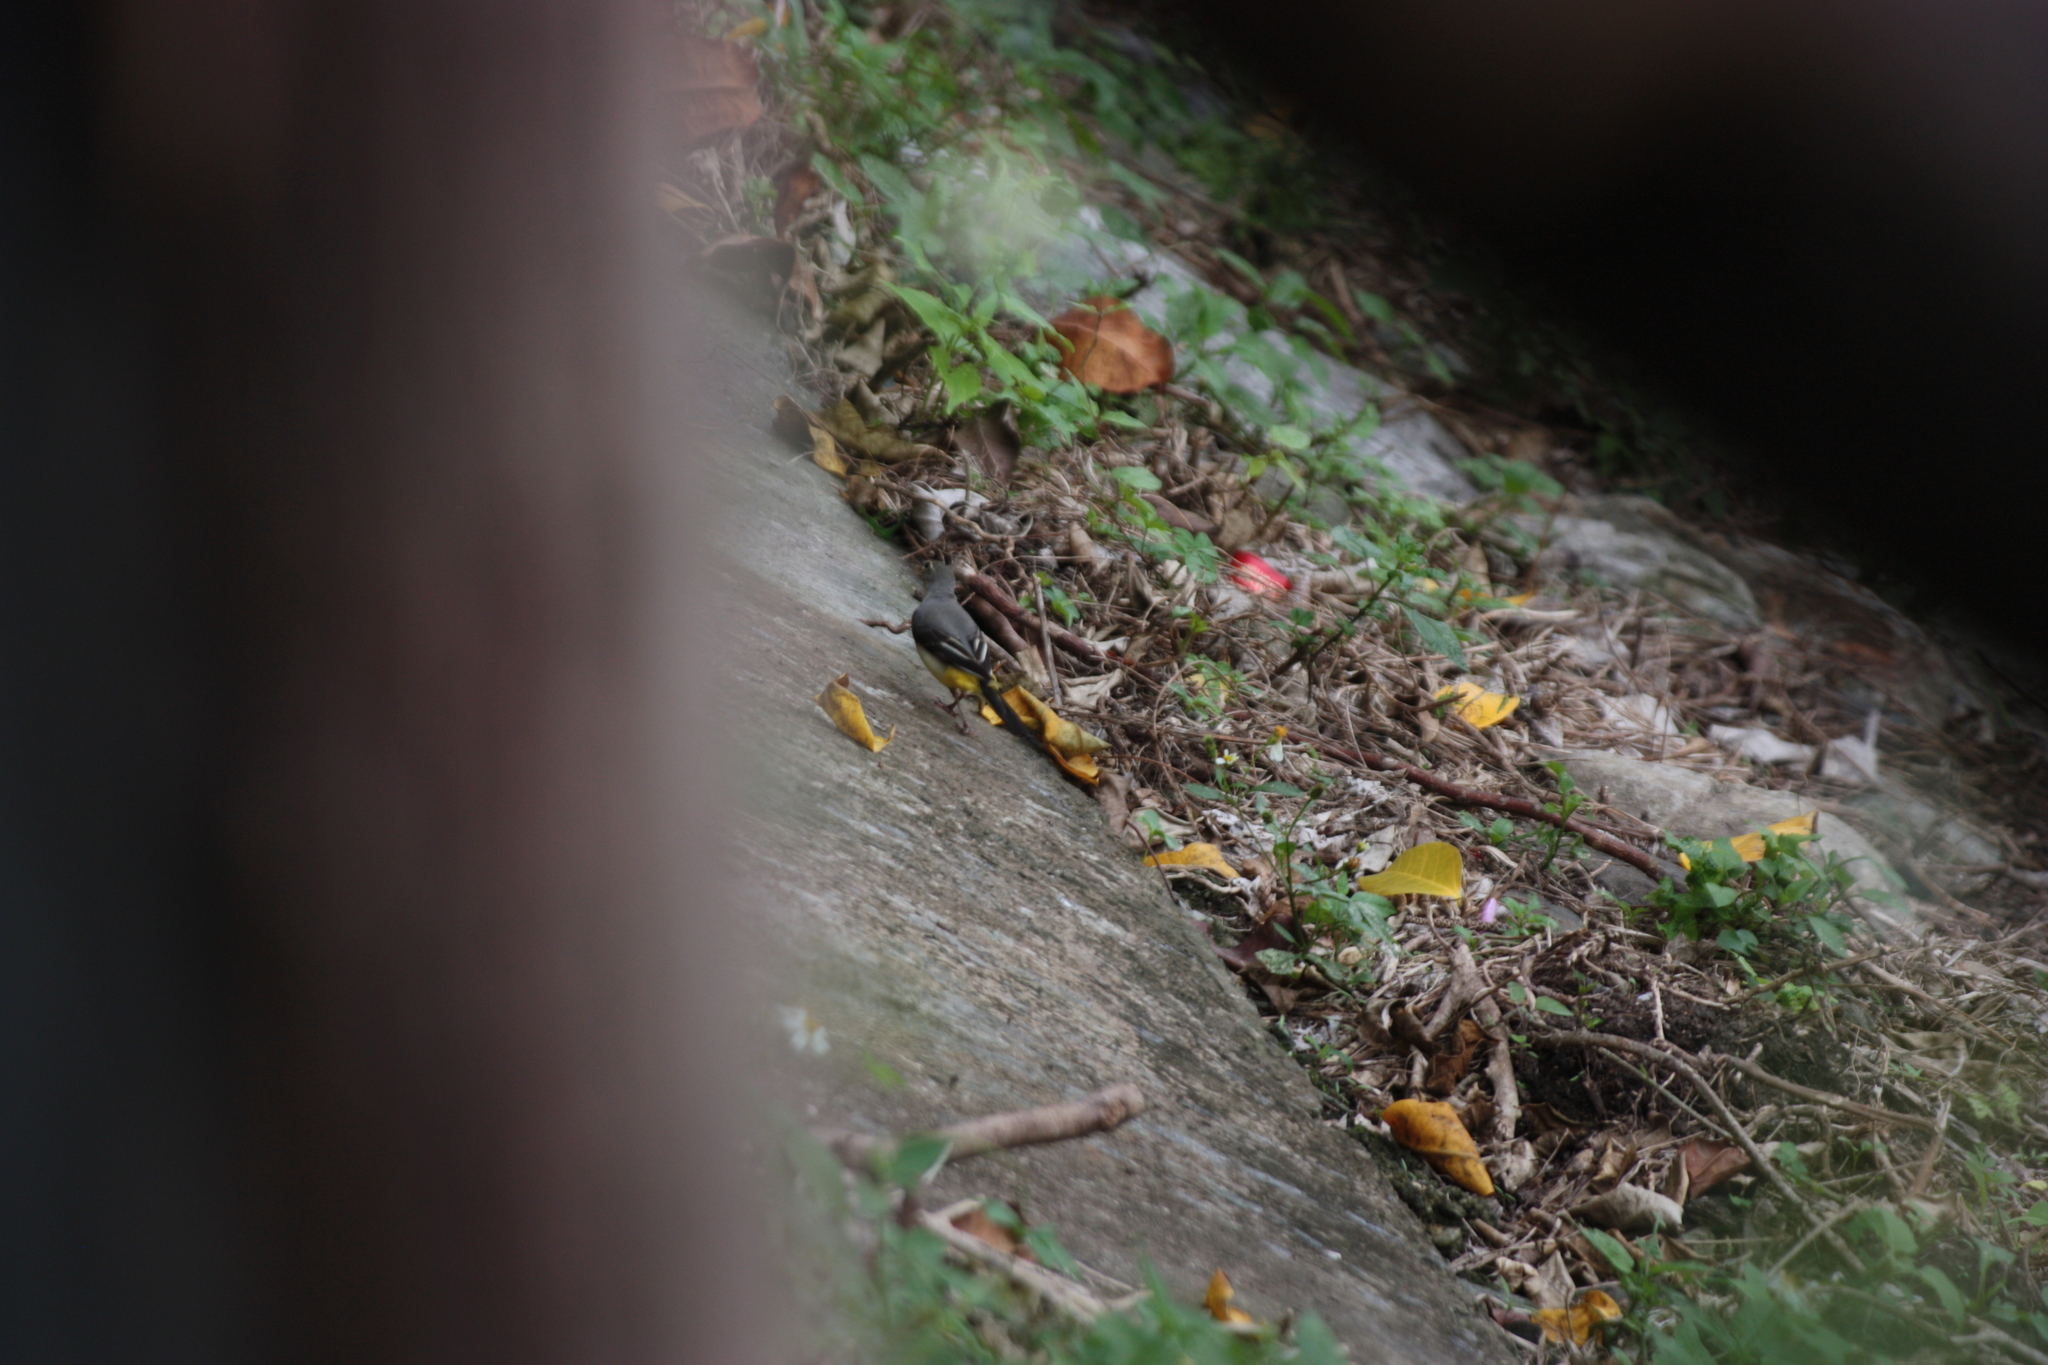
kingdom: Animalia
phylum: Chordata
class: Aves
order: Passeriformes
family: Motacillidae
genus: Motacilla
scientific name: Motacilla cinerea
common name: Grey wagtail
